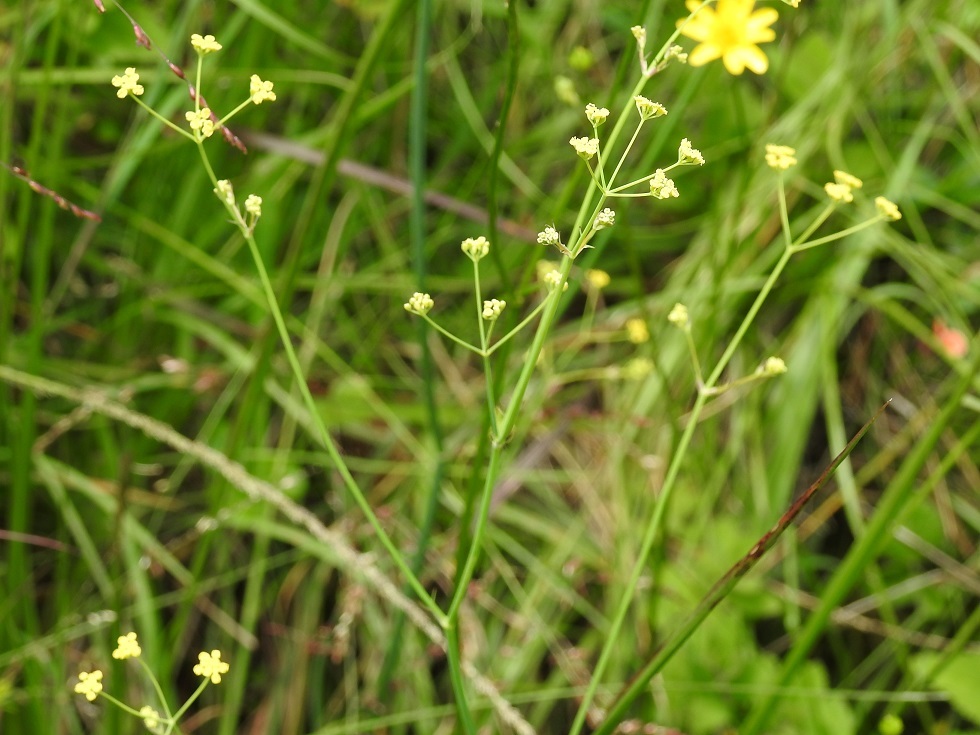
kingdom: Plantae
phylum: Tracheophyta
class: Magnoliopsida
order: Apiales
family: Apiaceae
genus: Donnellsmithia
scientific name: Donnellsmithia juncea
